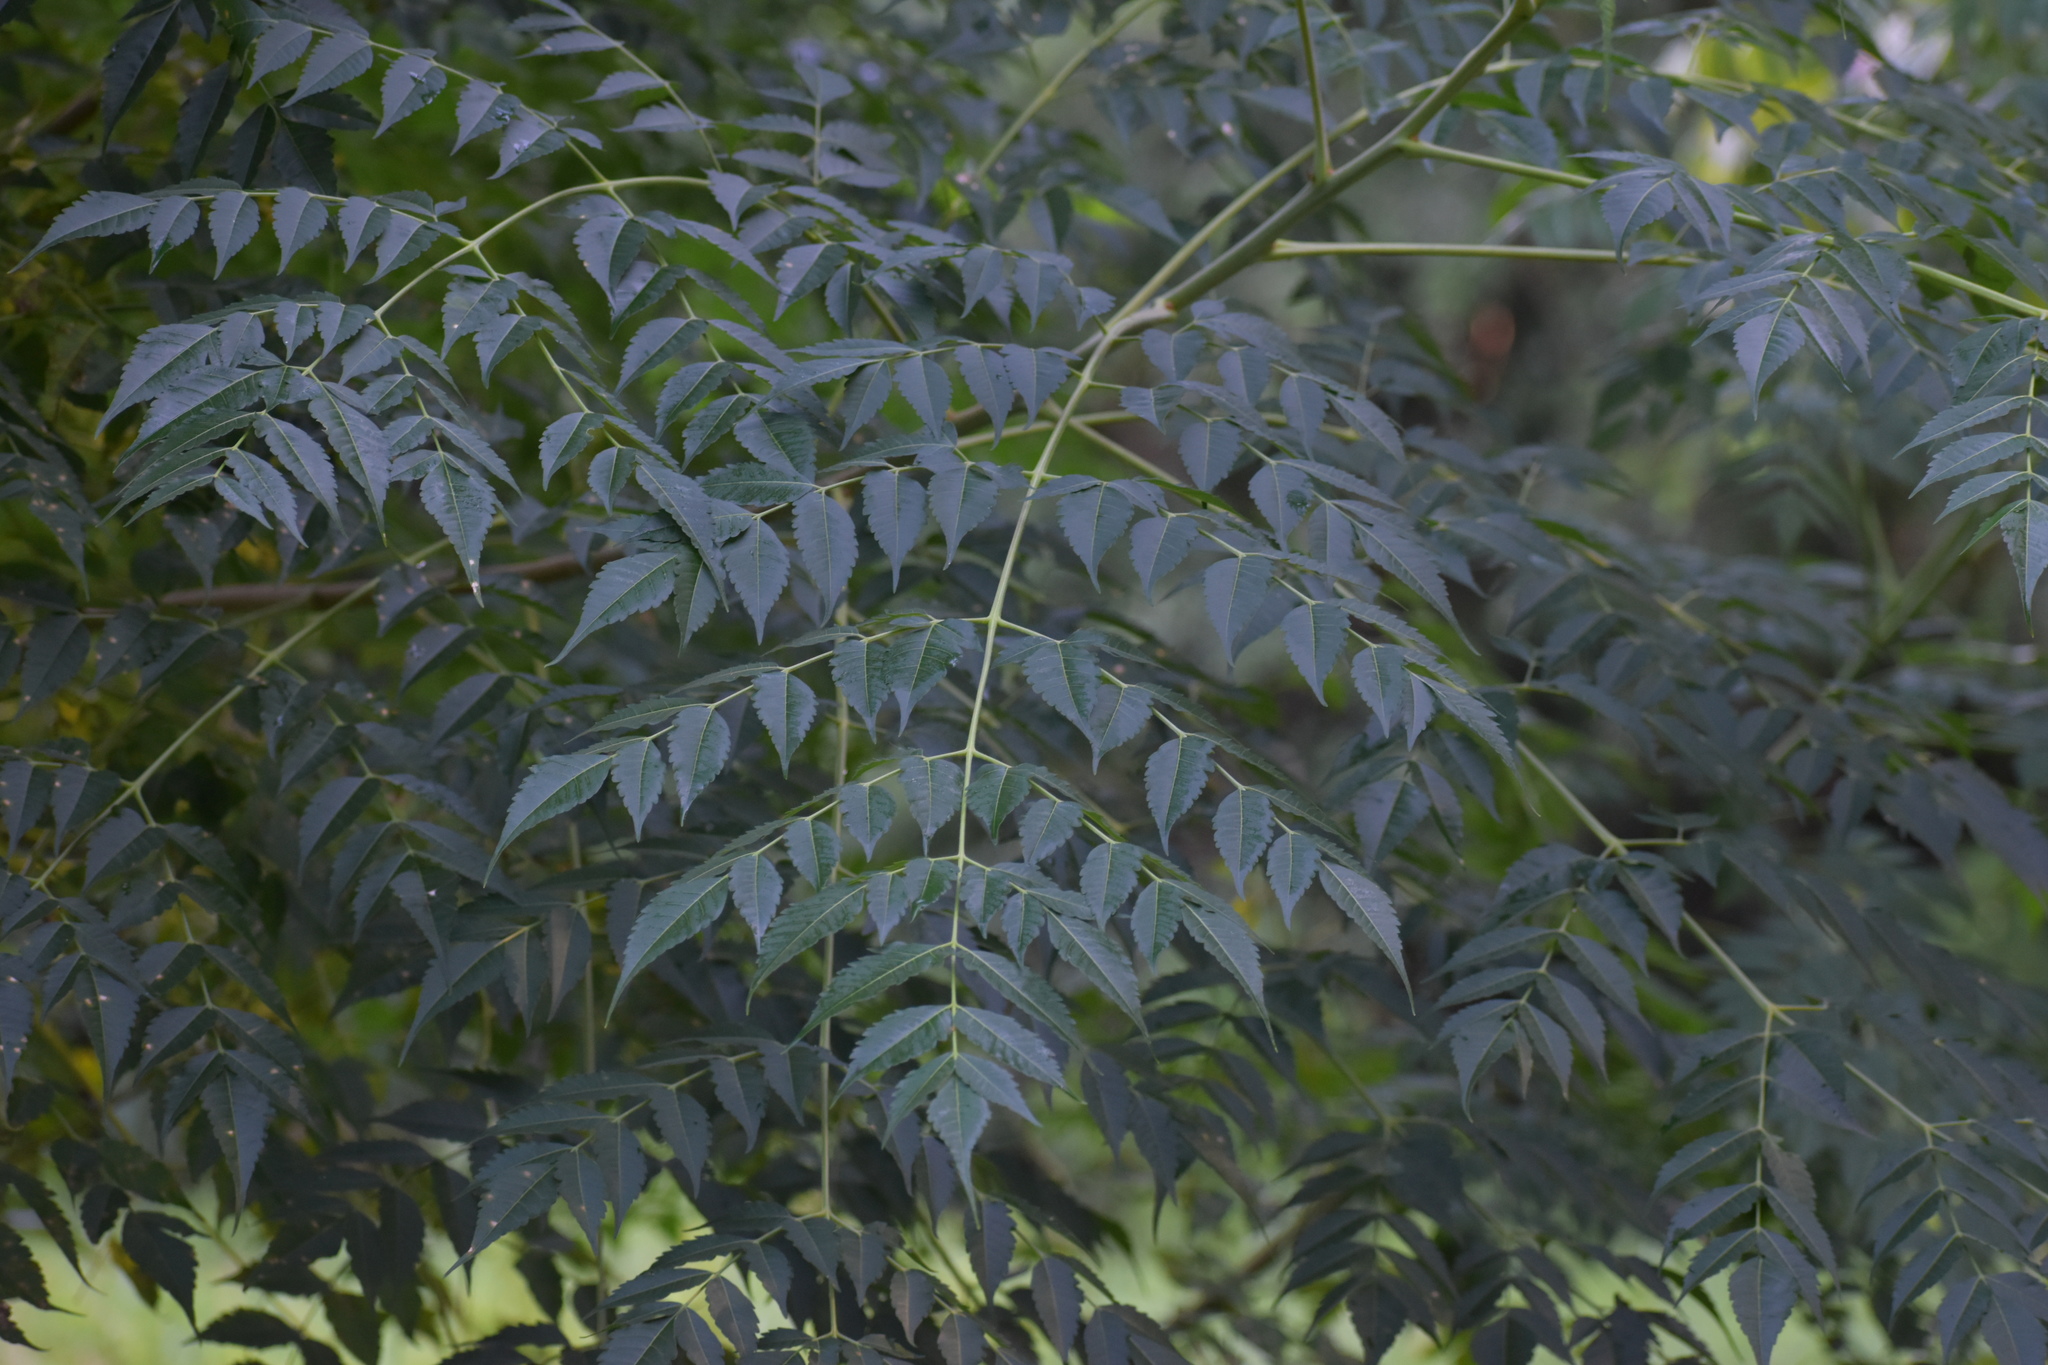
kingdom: Plantae
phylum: Tracheophyta
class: Magnoliopsida
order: Sapindales
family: Meliaceae
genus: Melia
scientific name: Melia azedarach
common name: Chinaberrytree
